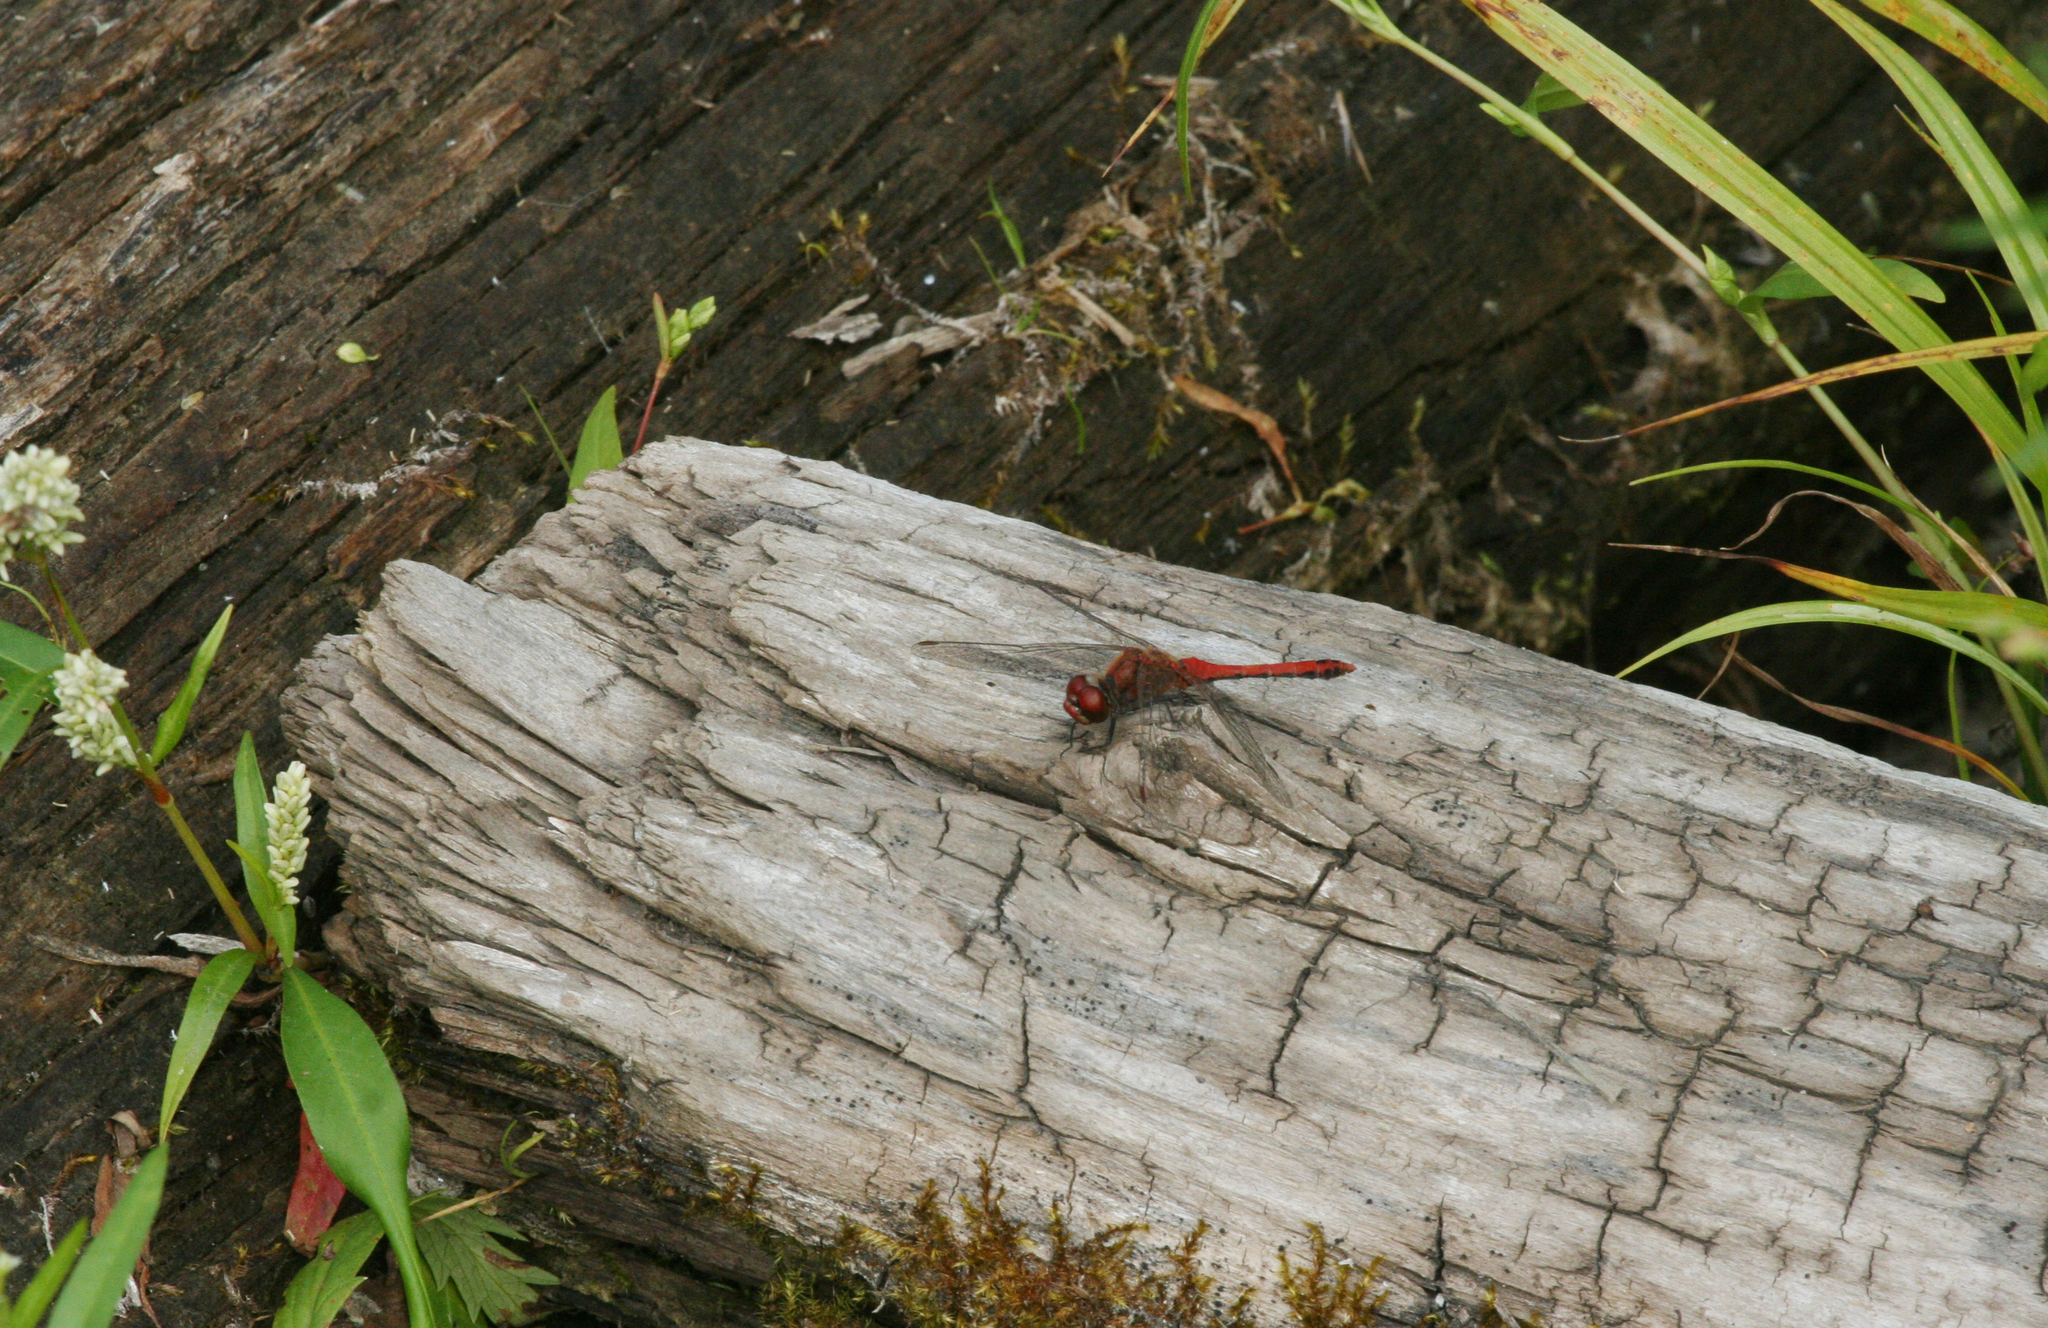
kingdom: Animalia
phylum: Arthropoda
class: Insecta
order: Odonata
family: Libellulidae
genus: Sympetrum
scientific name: Sympetrum sanguineum
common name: Ruddy darter
